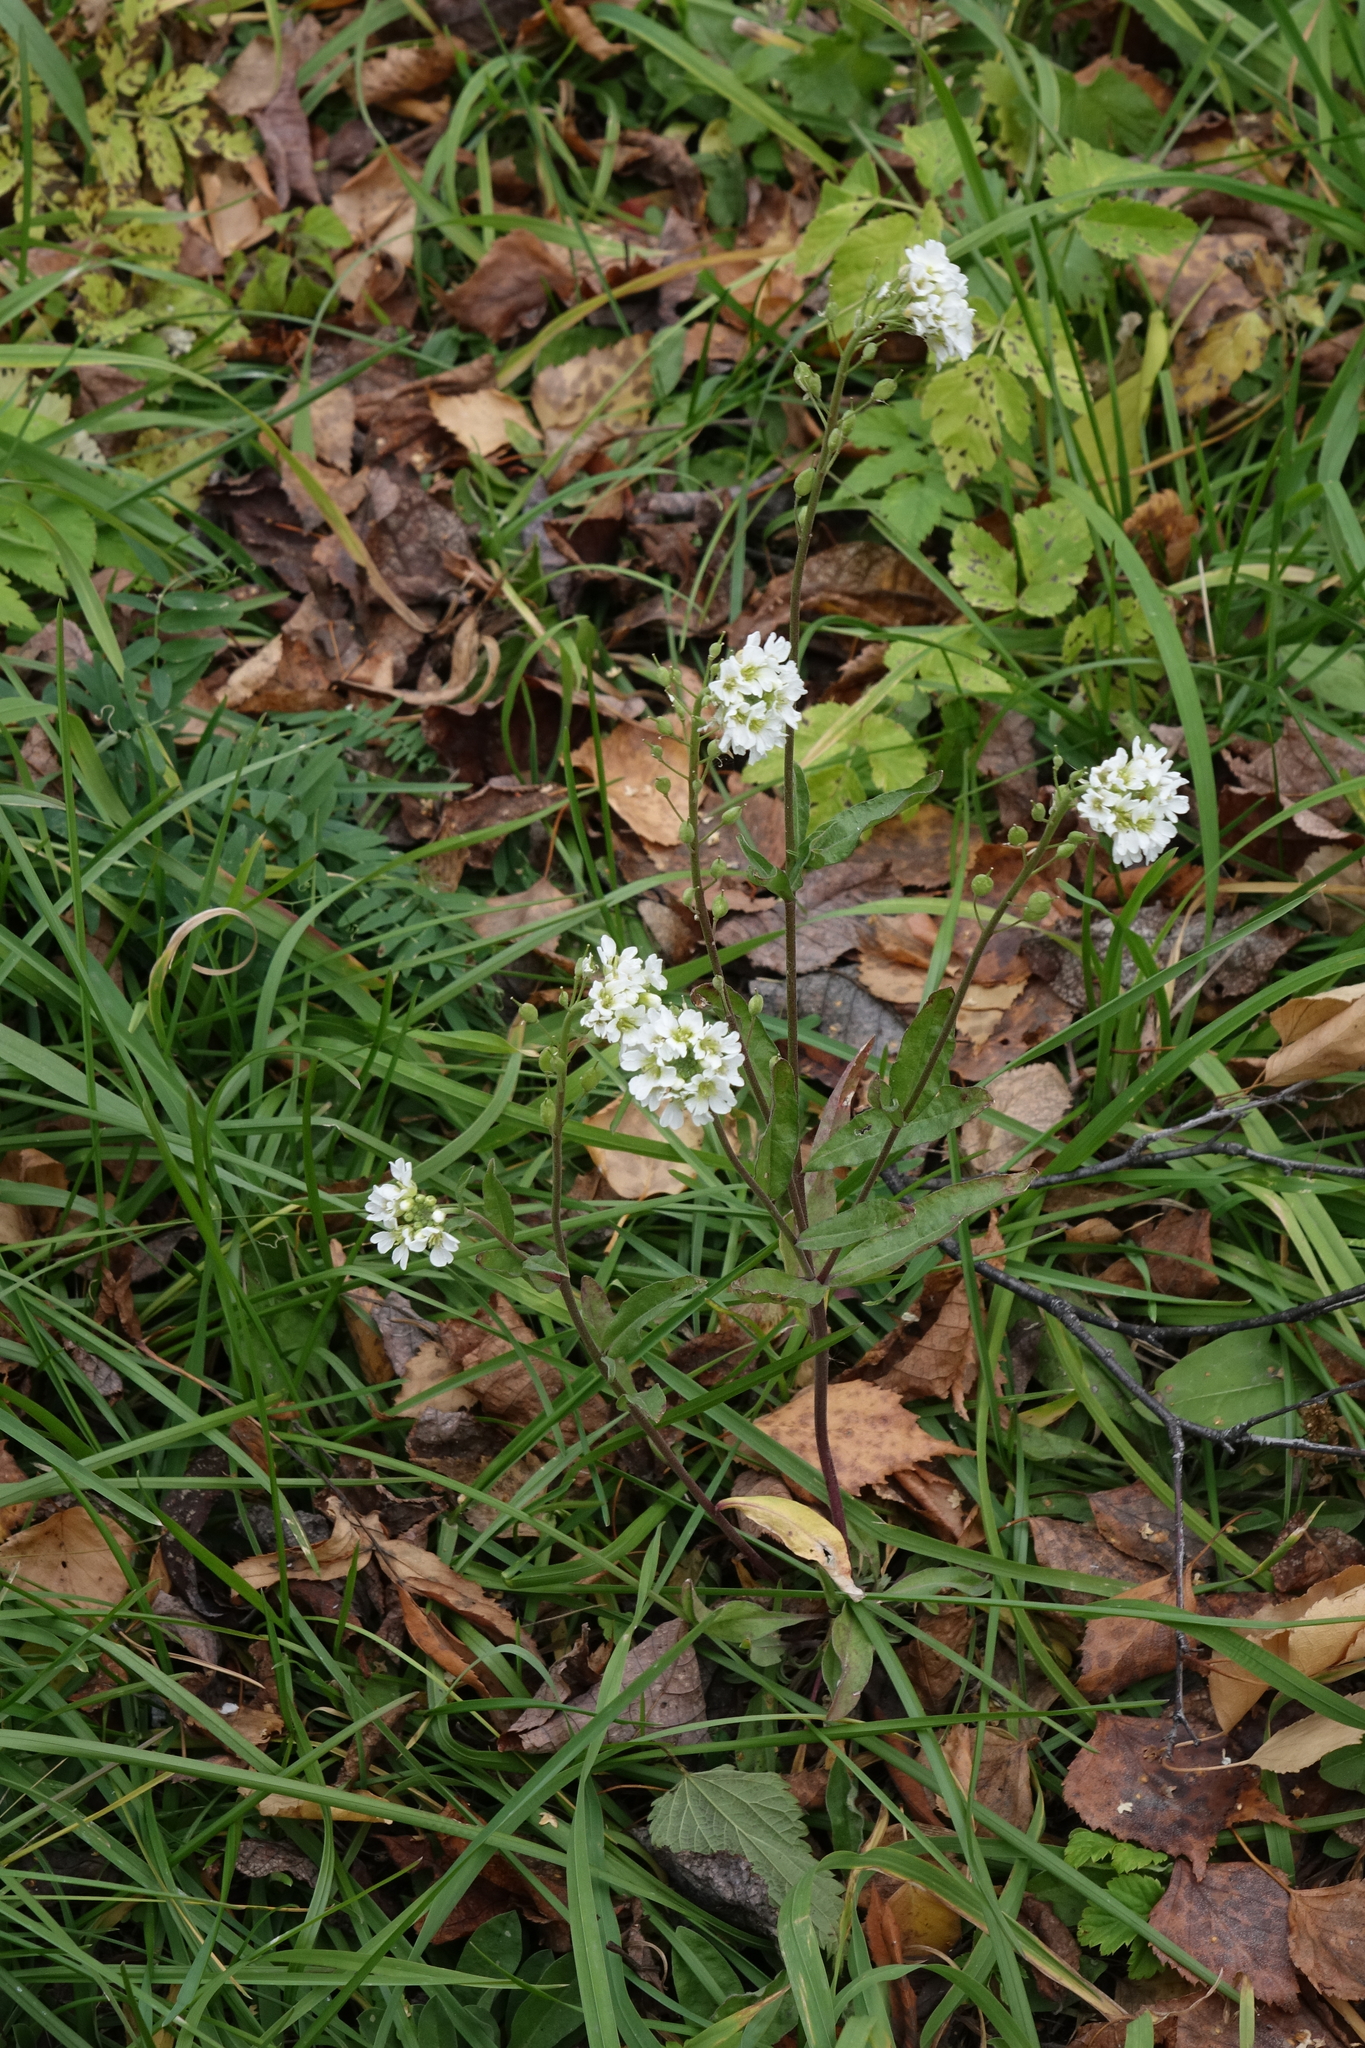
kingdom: Plantae
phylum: Tracheophyta
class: Magnoliopsida
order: Brassicales
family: Brassicaceae
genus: Berteroa
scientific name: Berteroa incana
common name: Hoary alison
